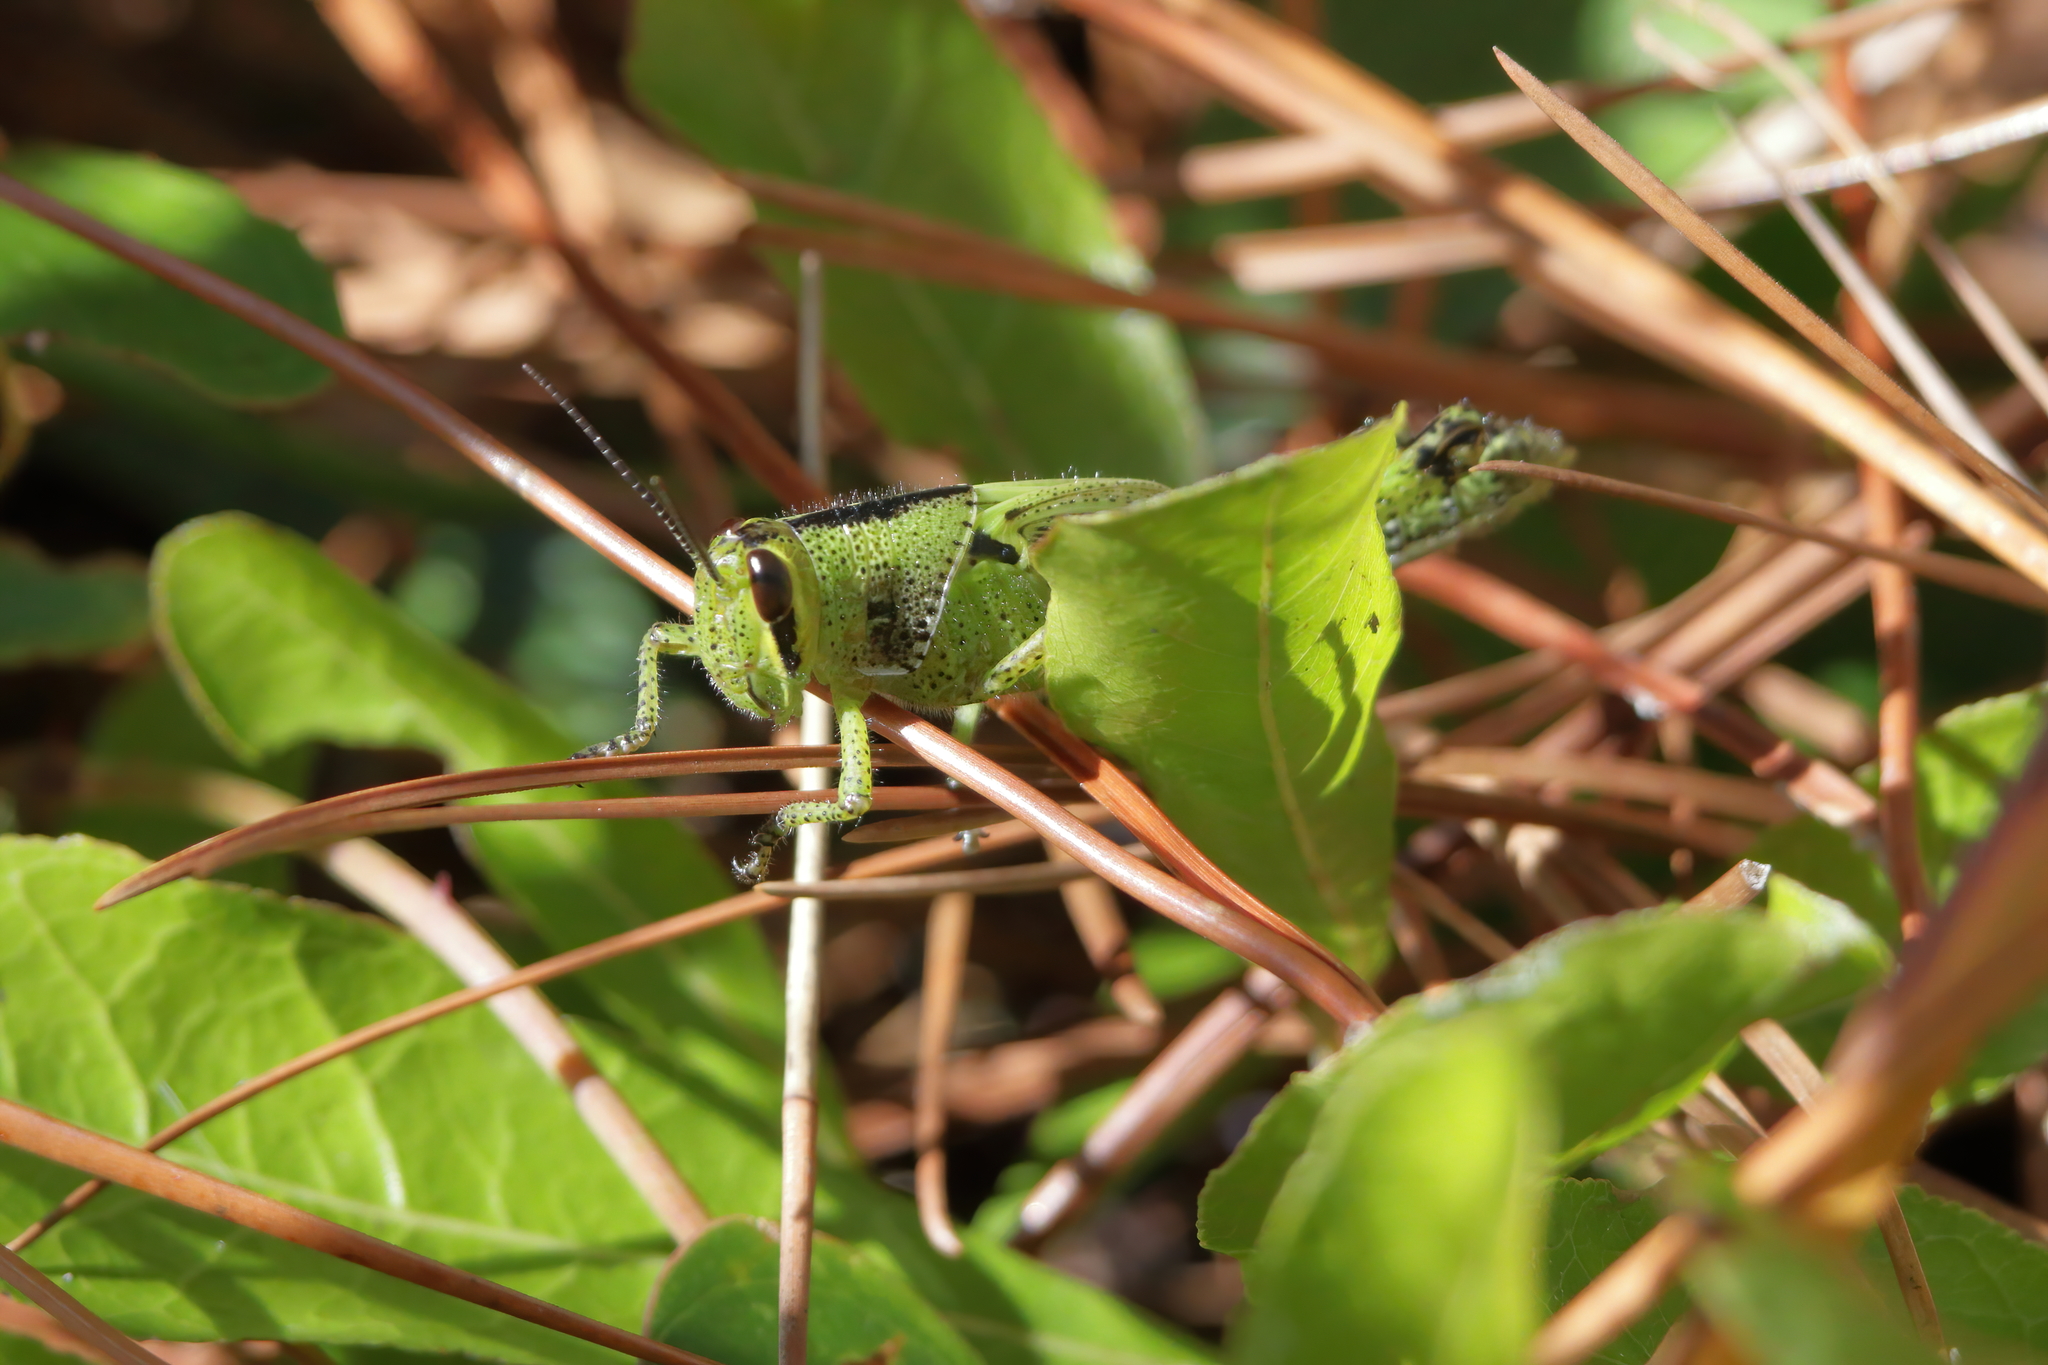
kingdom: Animalia
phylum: Arthropoda
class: Insecta
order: Orthoptera
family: Acrididae
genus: Schistocerca
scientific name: Schistocerca americana
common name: American bird locust
